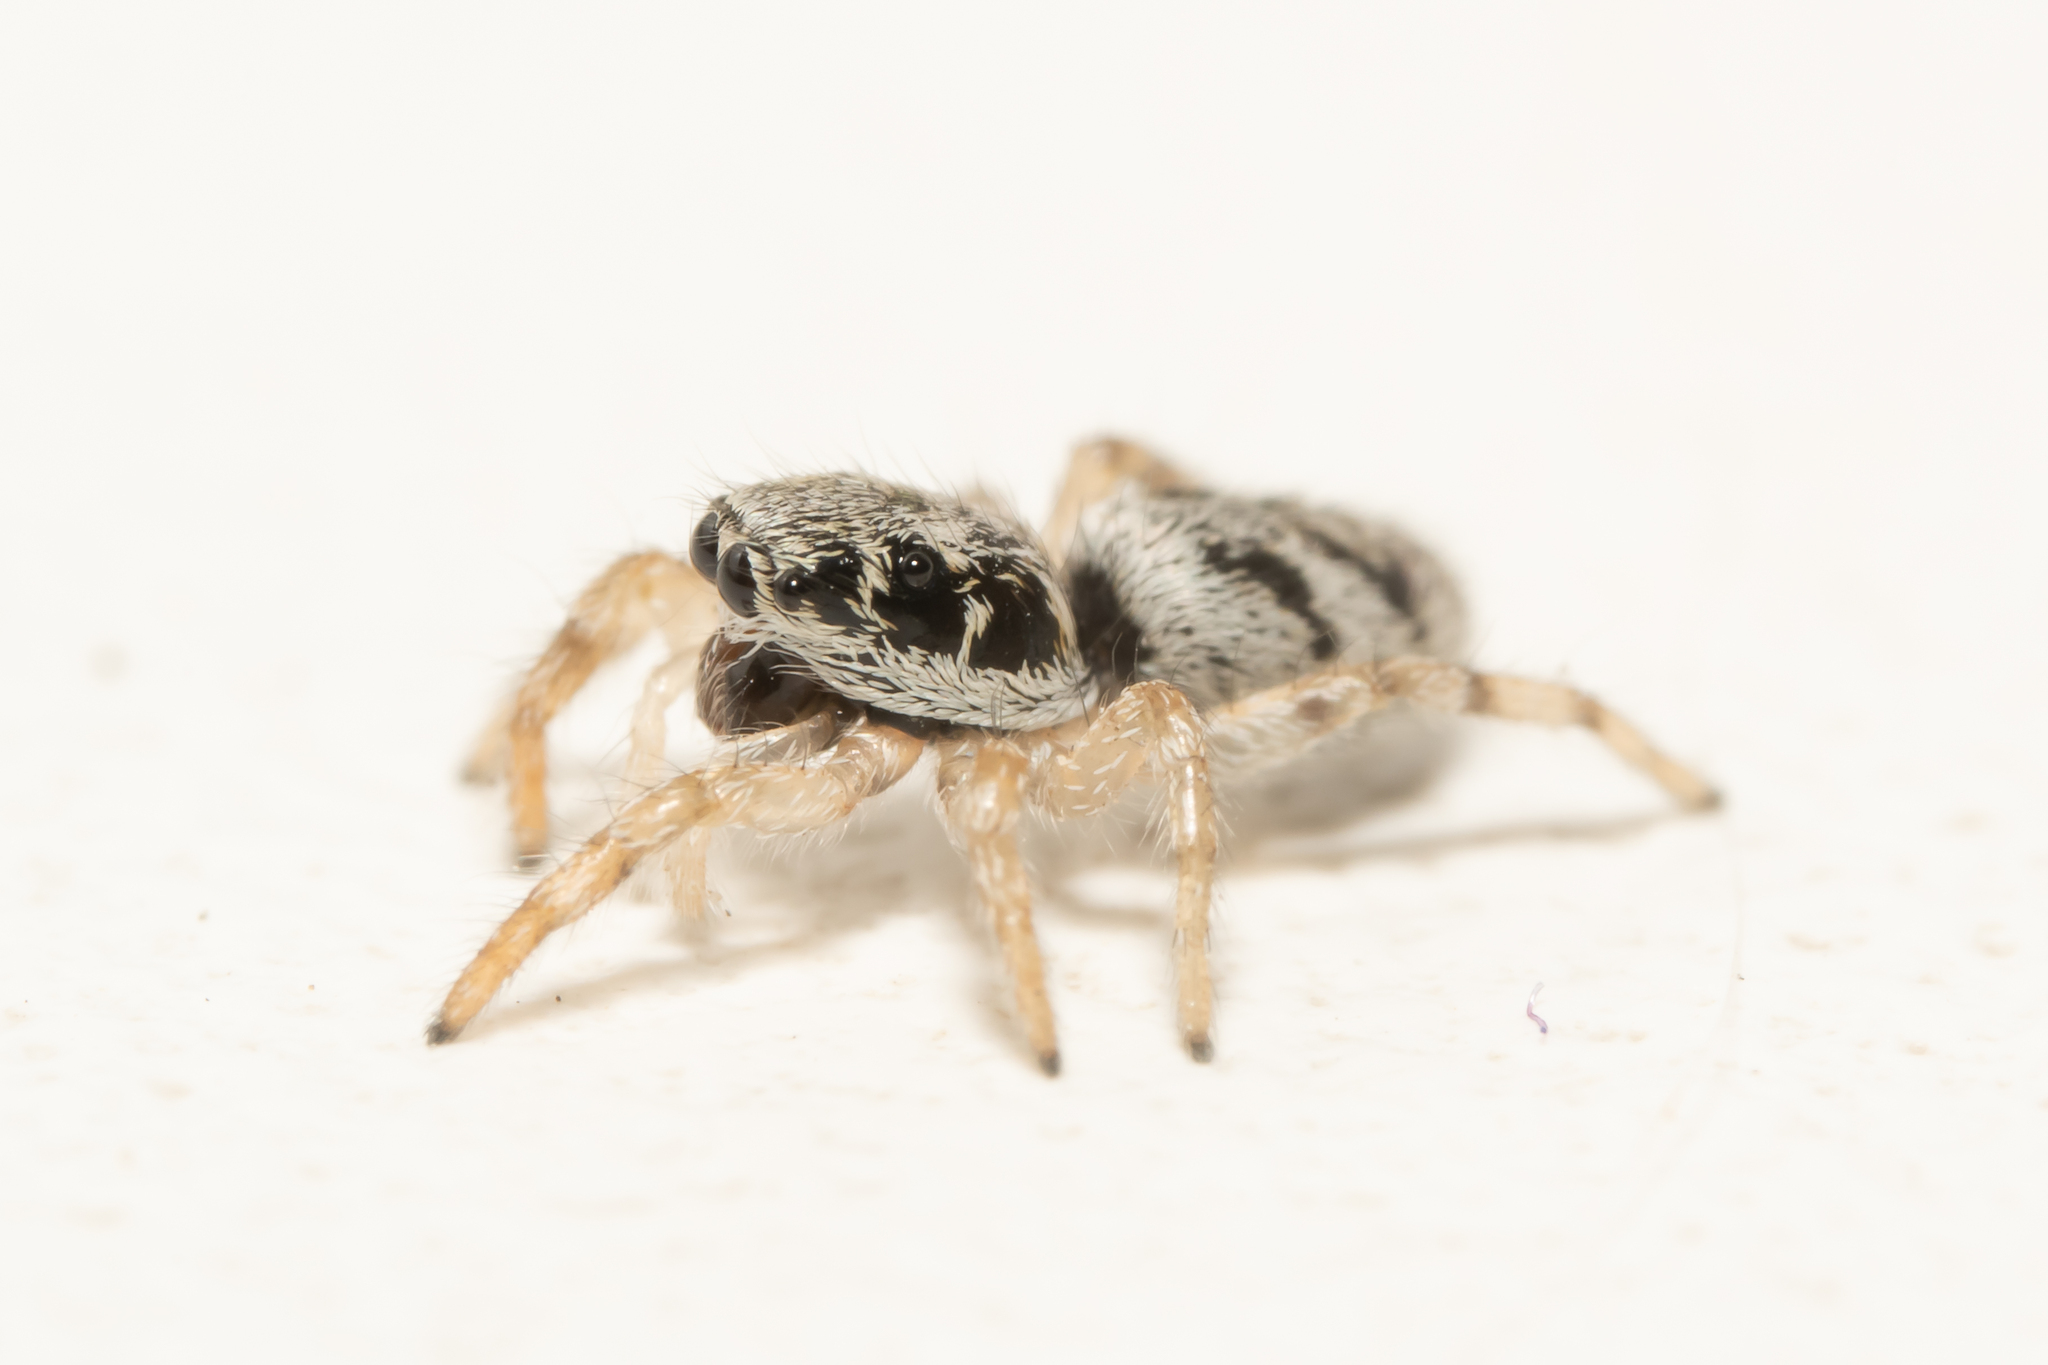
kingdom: Animalia
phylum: Arthropoda
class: Arachnida
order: Araneae
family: Salticidae
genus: Salticus
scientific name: Salticus cingulatus
